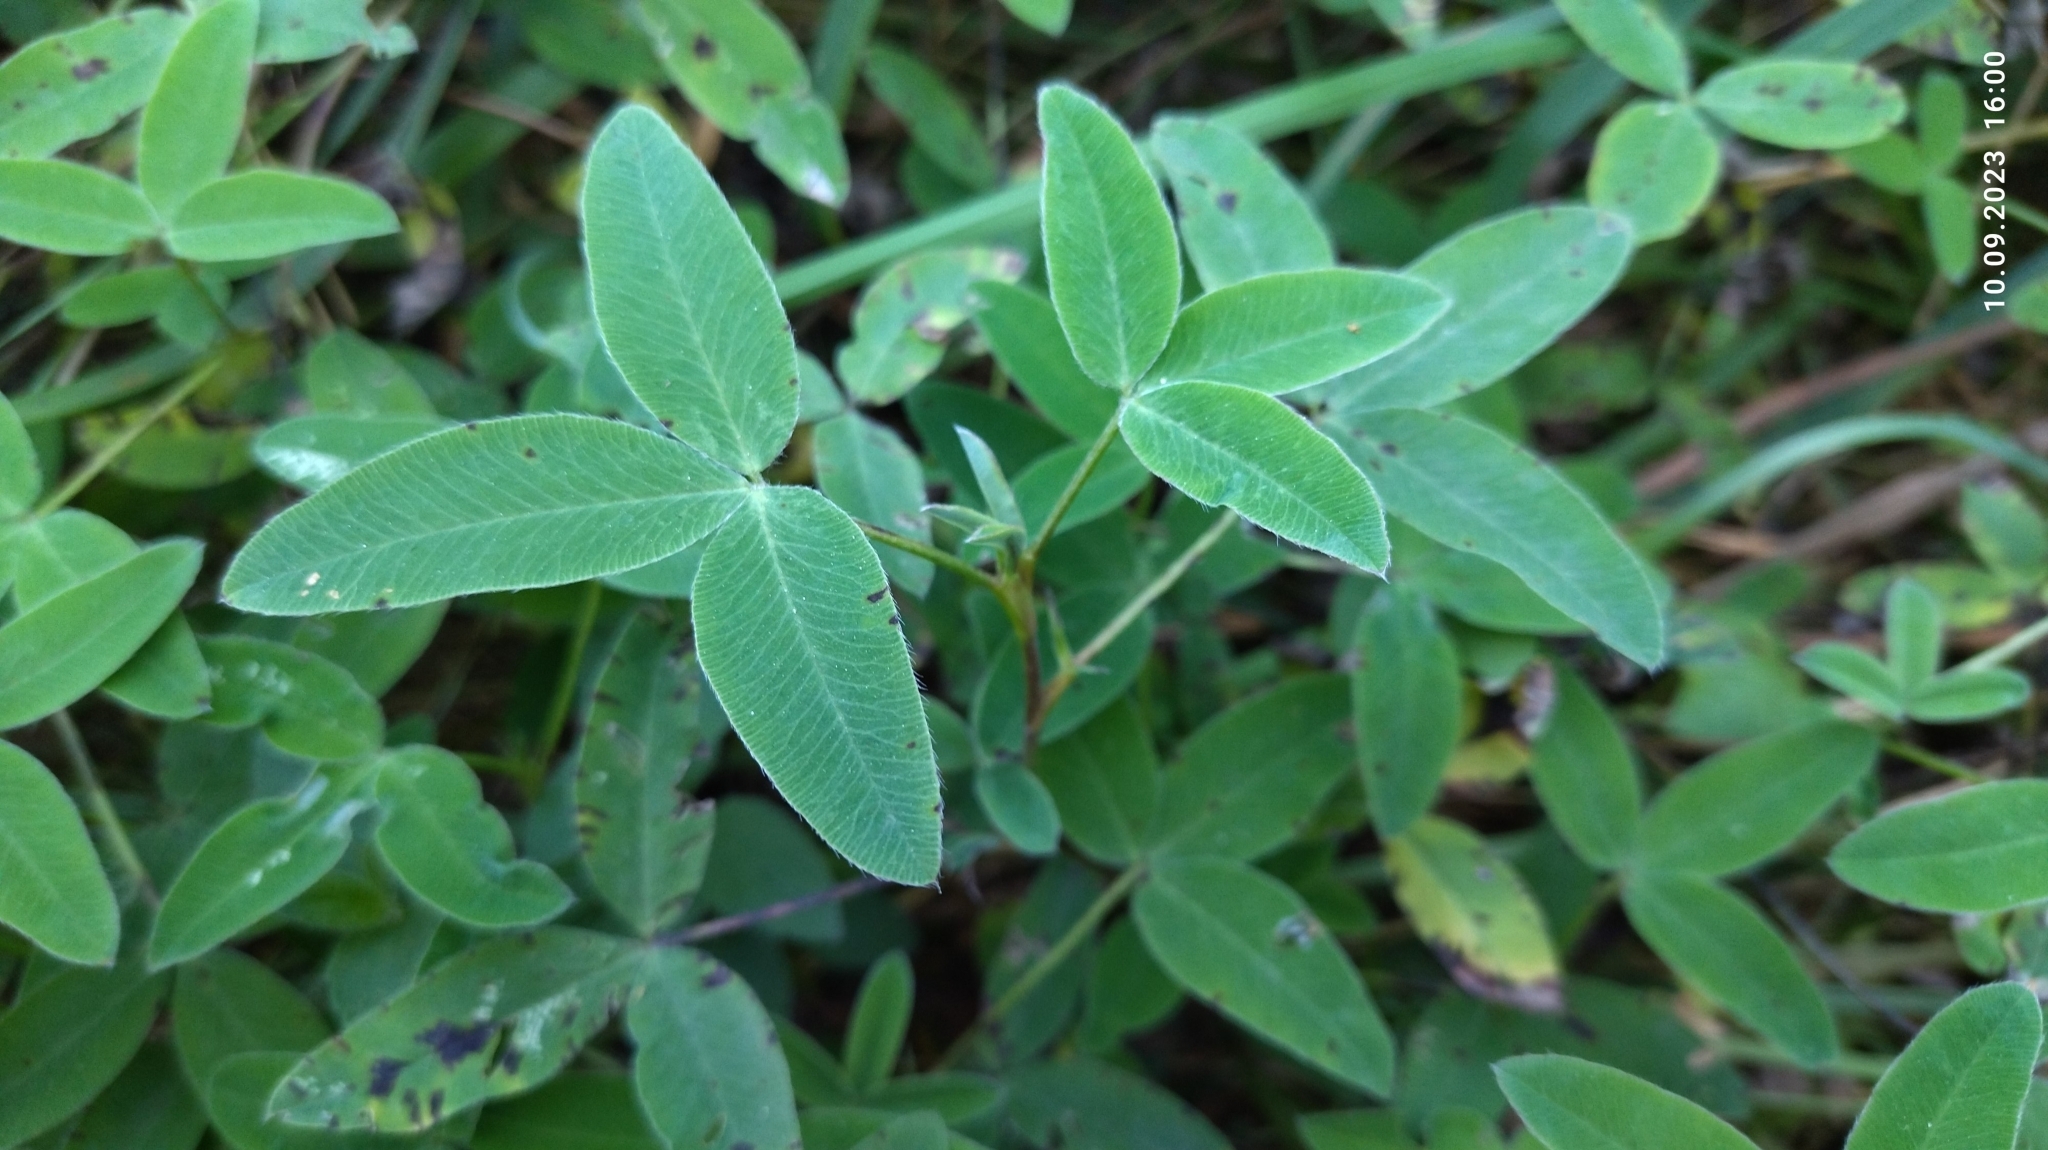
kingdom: Plantae
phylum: Tracheophyta
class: Magnoliopsida
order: Fabales
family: Fabaceae
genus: Trifolium
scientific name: Trifolium medium
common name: Zigzag clover
